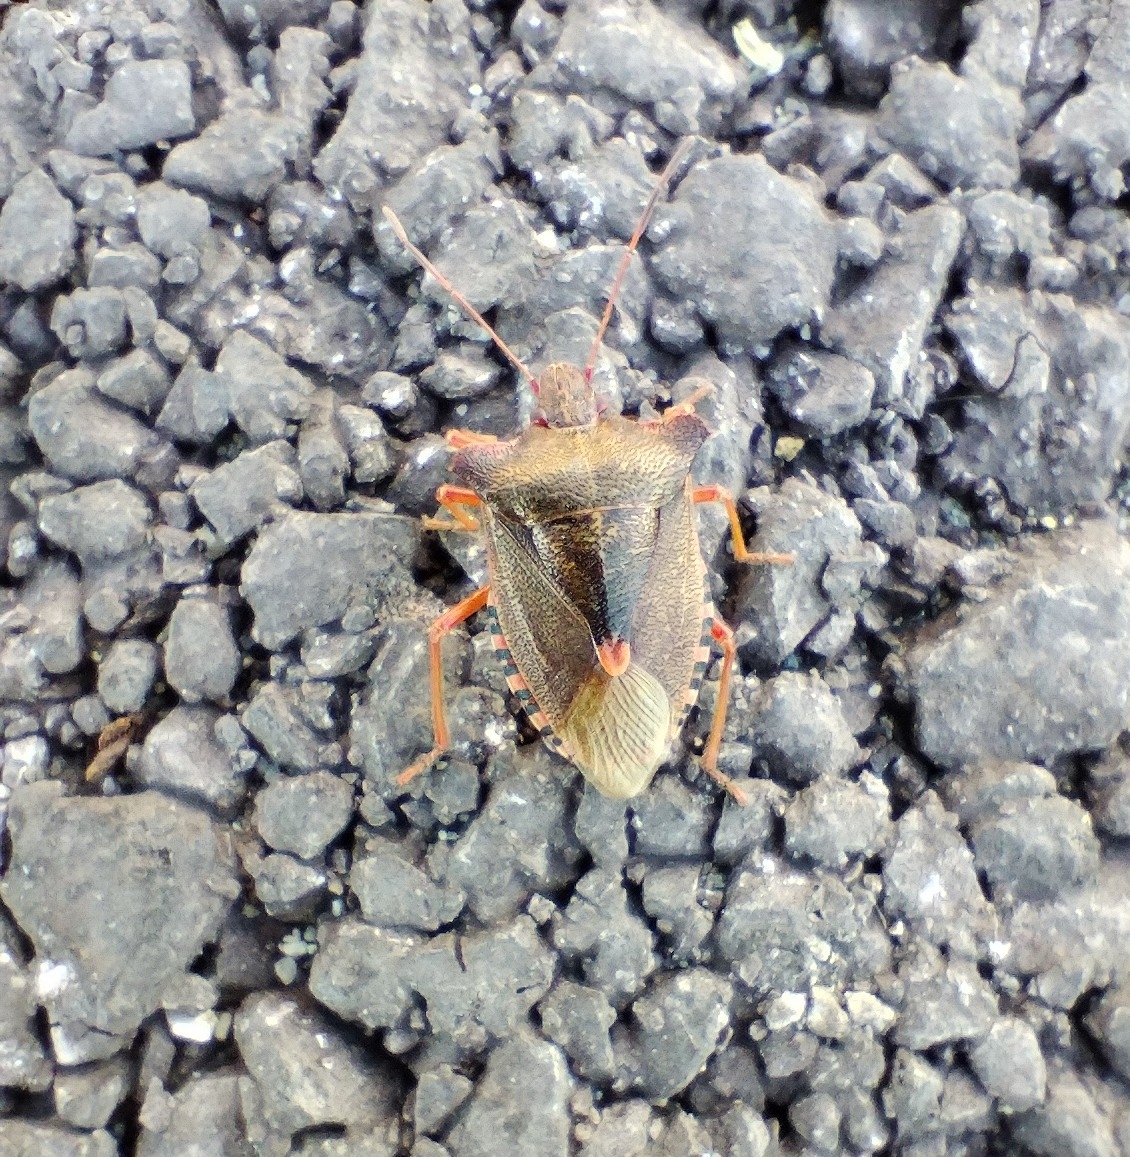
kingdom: Animalia
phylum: Arthropoda
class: Insecta
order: Hemiptera
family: Pentatomidae
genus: Pentatoma
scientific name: Pentatoma rufipes
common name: Forest bug
